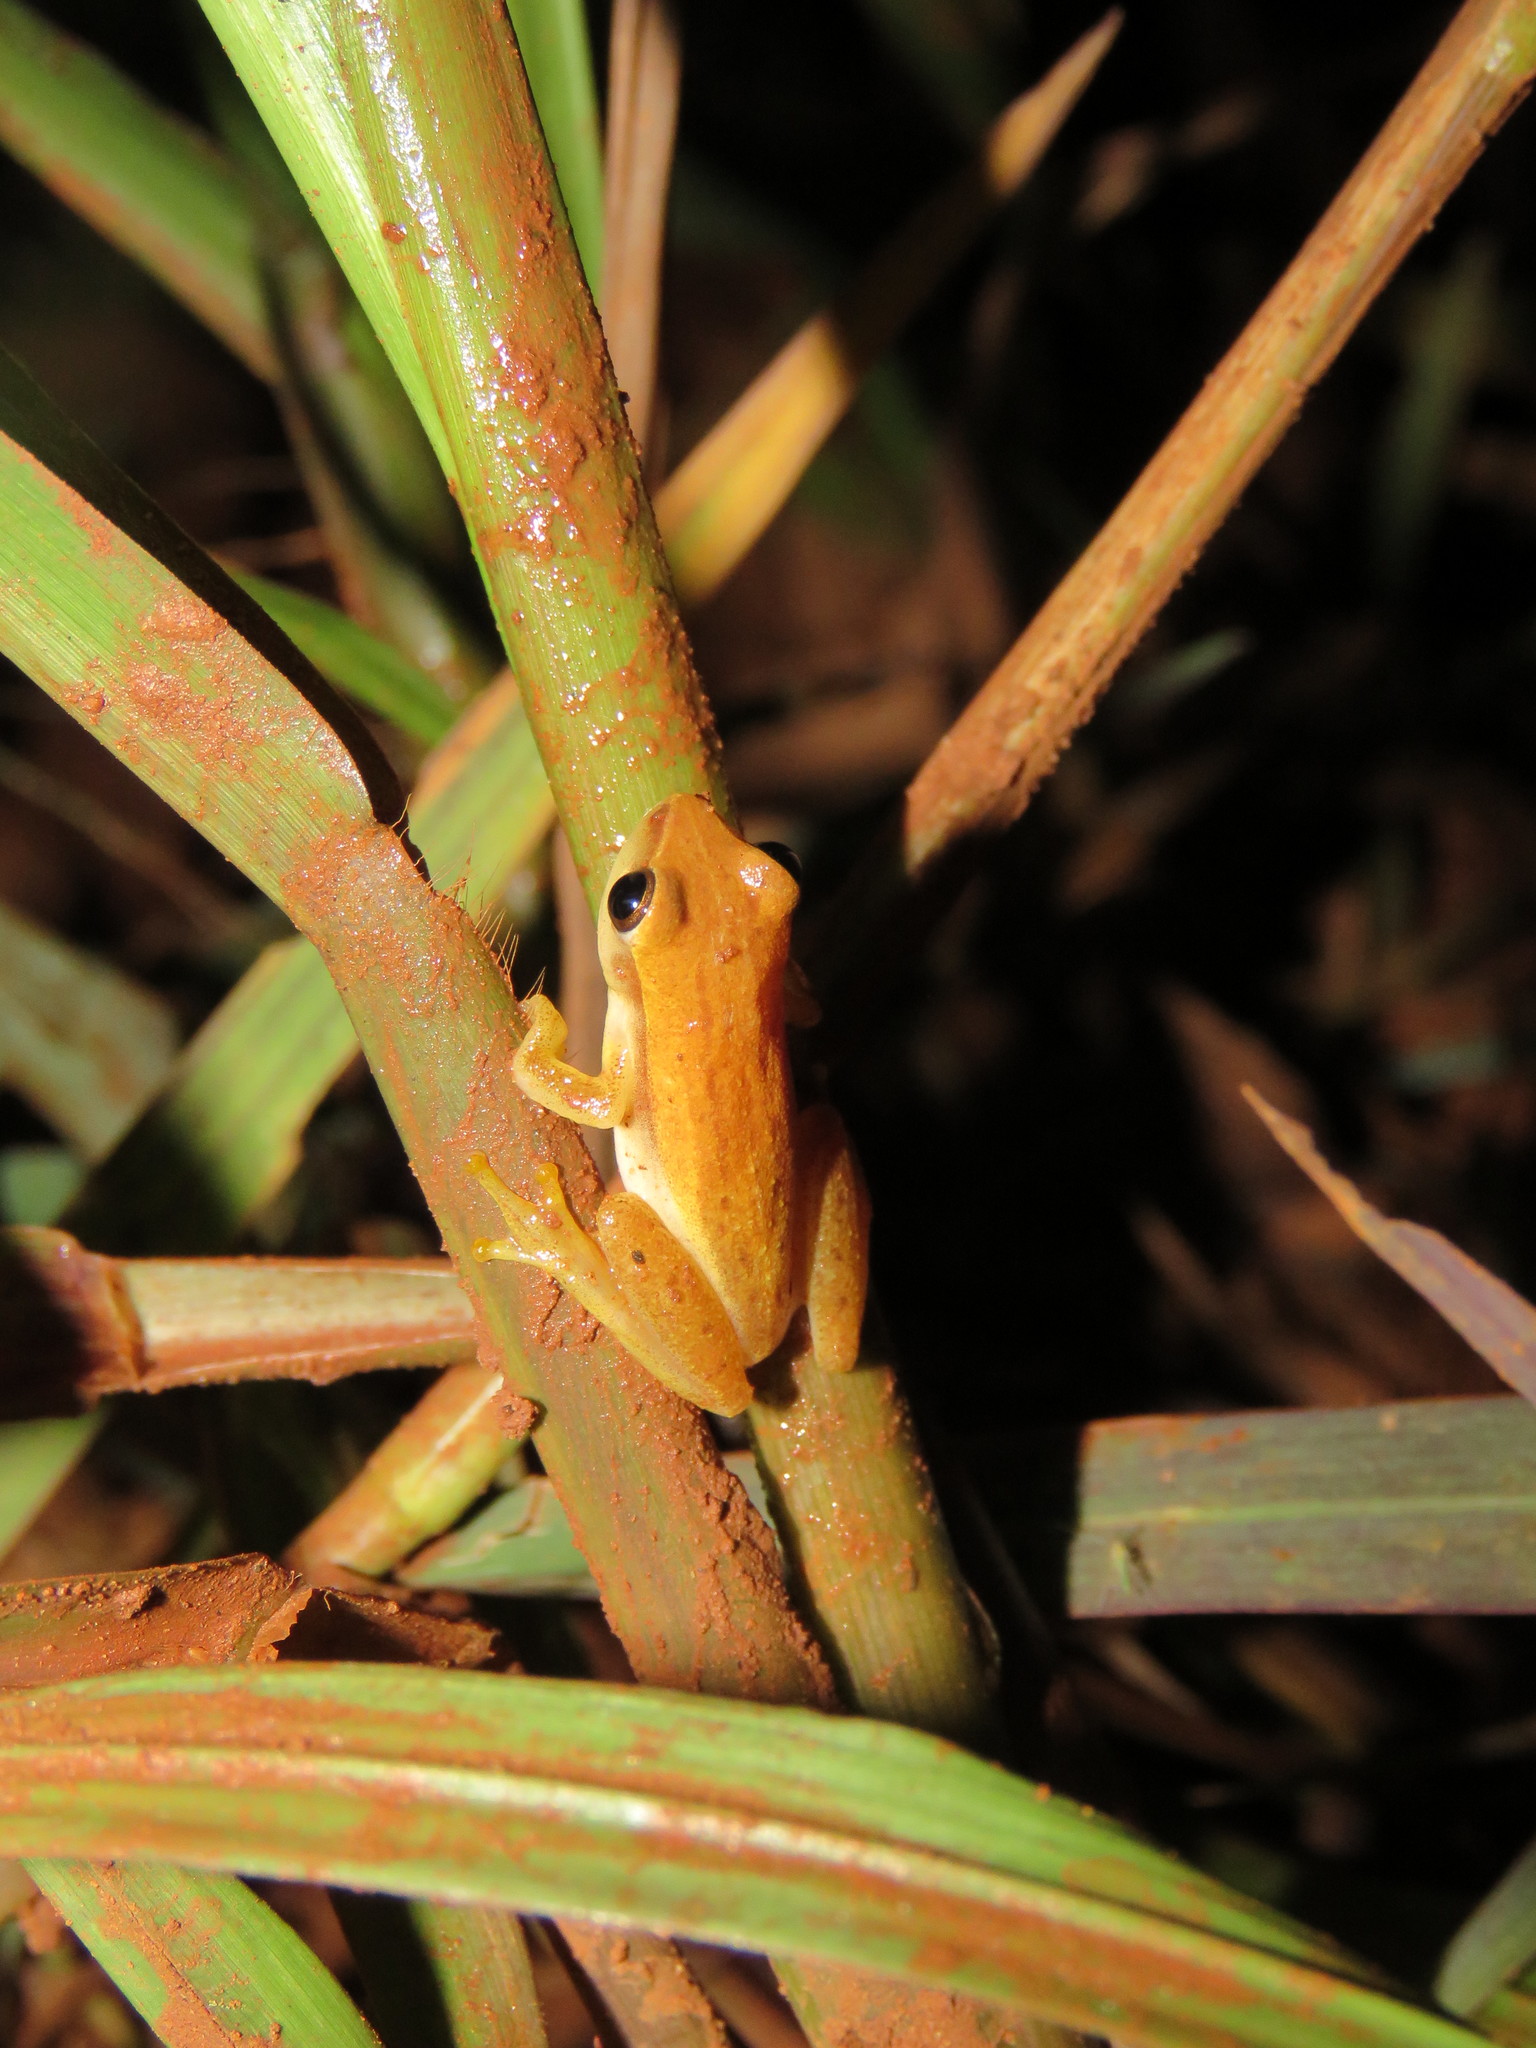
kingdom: Animalia
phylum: Chordata
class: Amphibia
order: Anura
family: Hylidae
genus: Dendropsophus
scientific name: Dendropsophus walfordi
